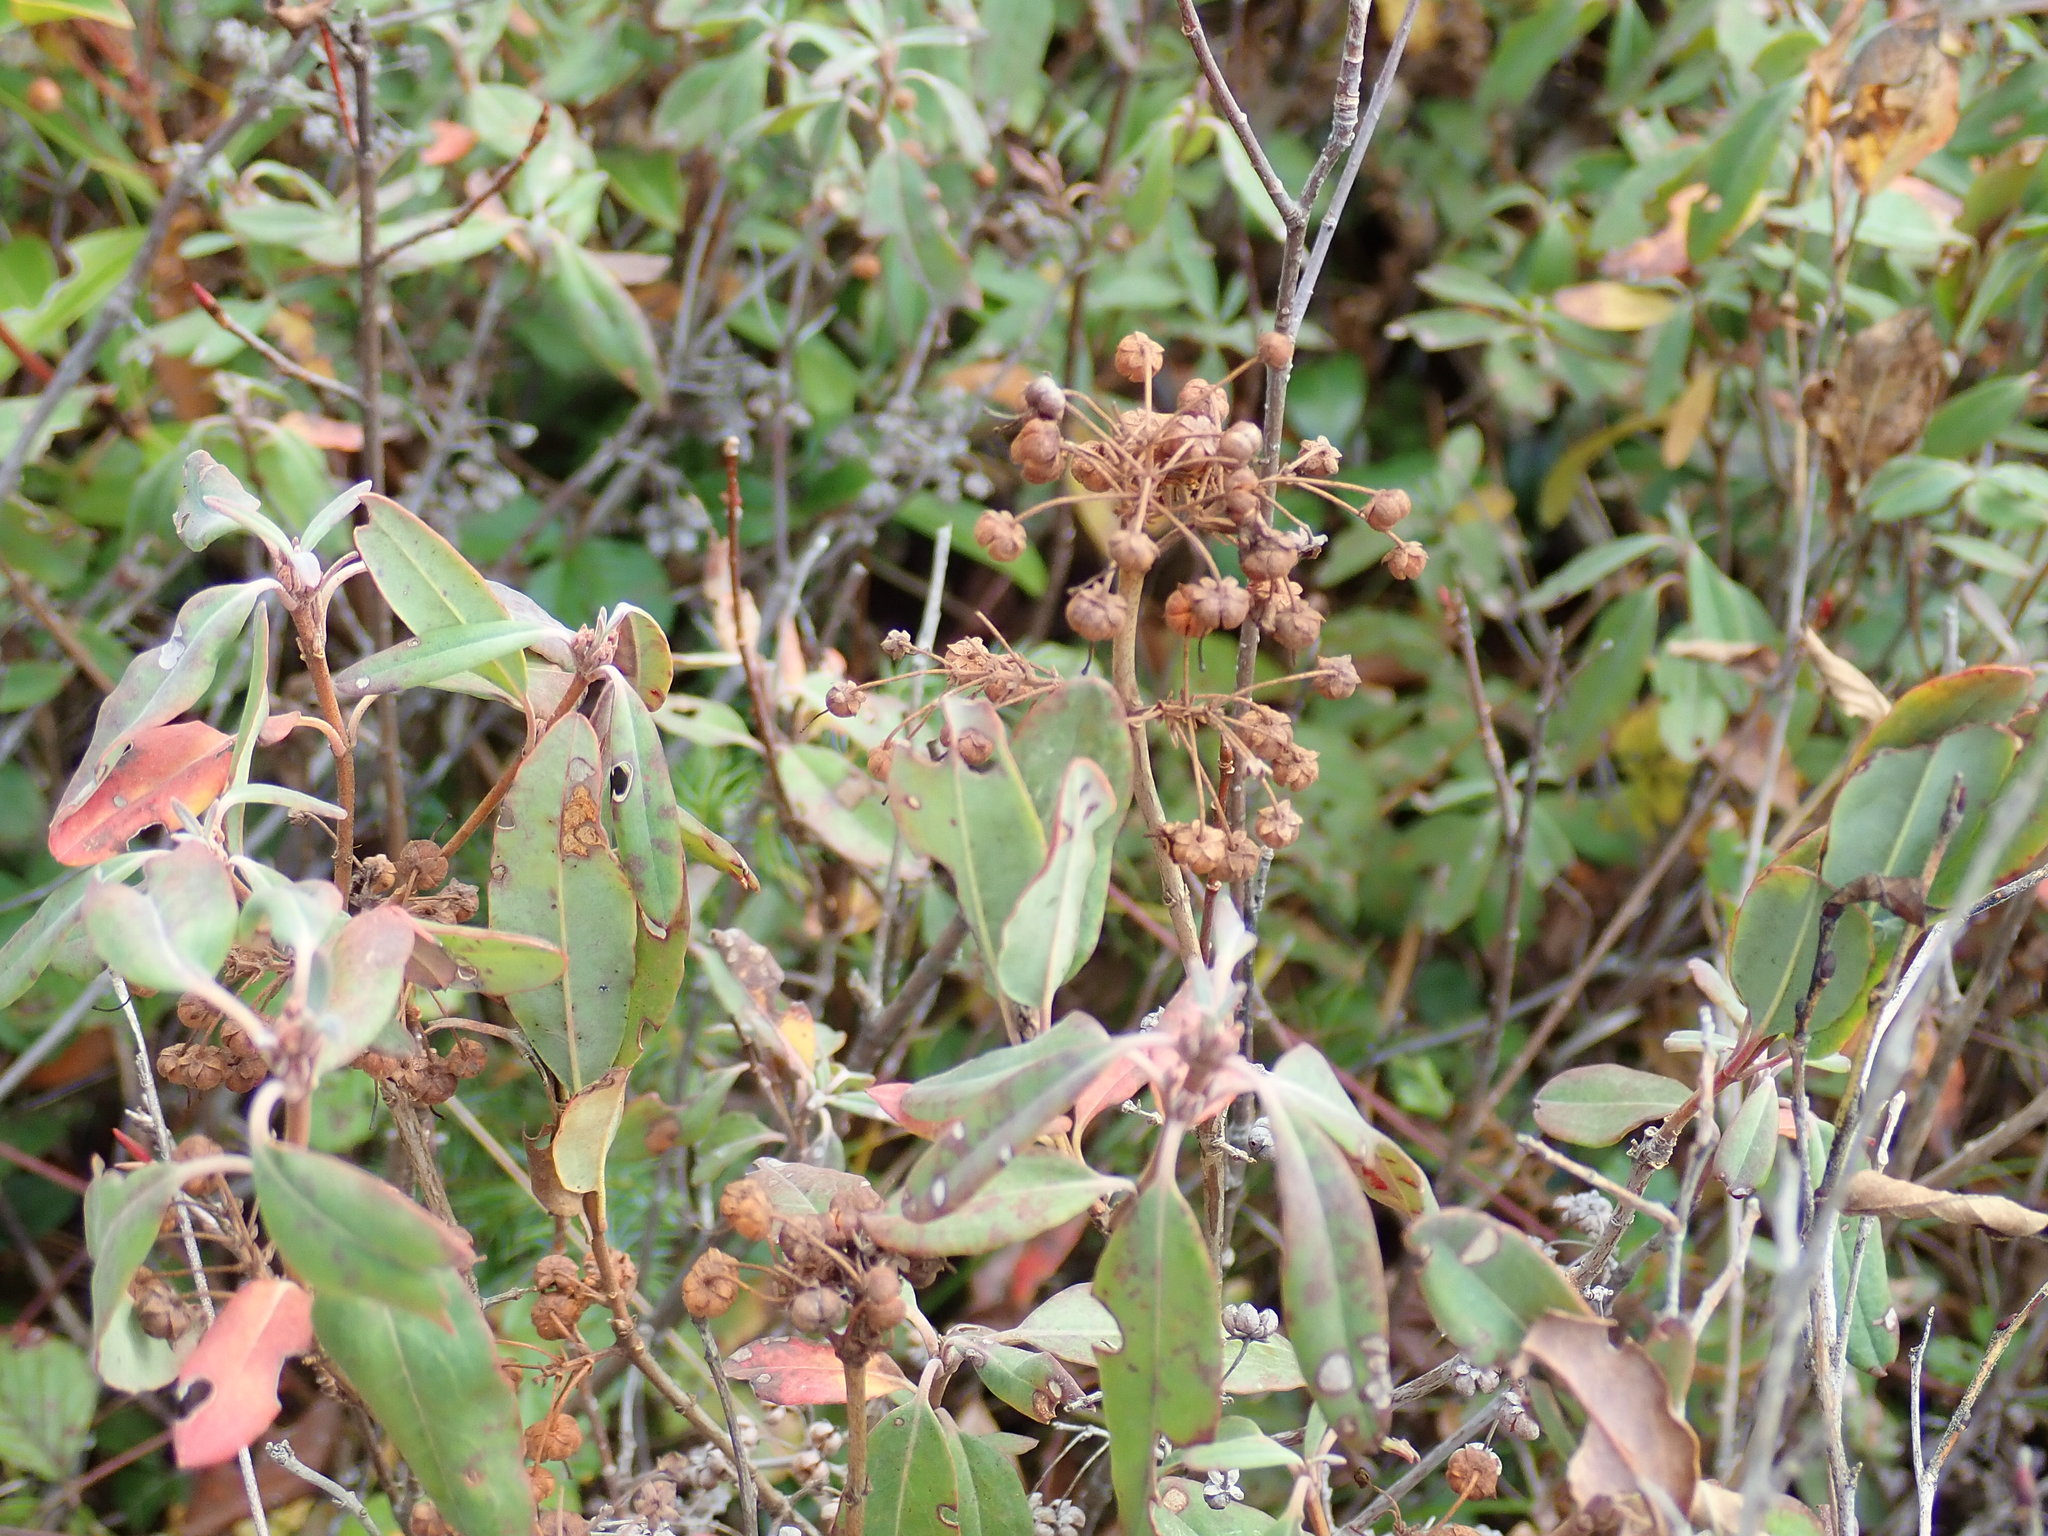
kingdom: Plantae
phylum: Tracheophyta
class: Magnoliopsida
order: Ericales
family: Ericaceae
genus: Kalmia
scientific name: Kalmia angustifolia
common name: Sheep-laurel
